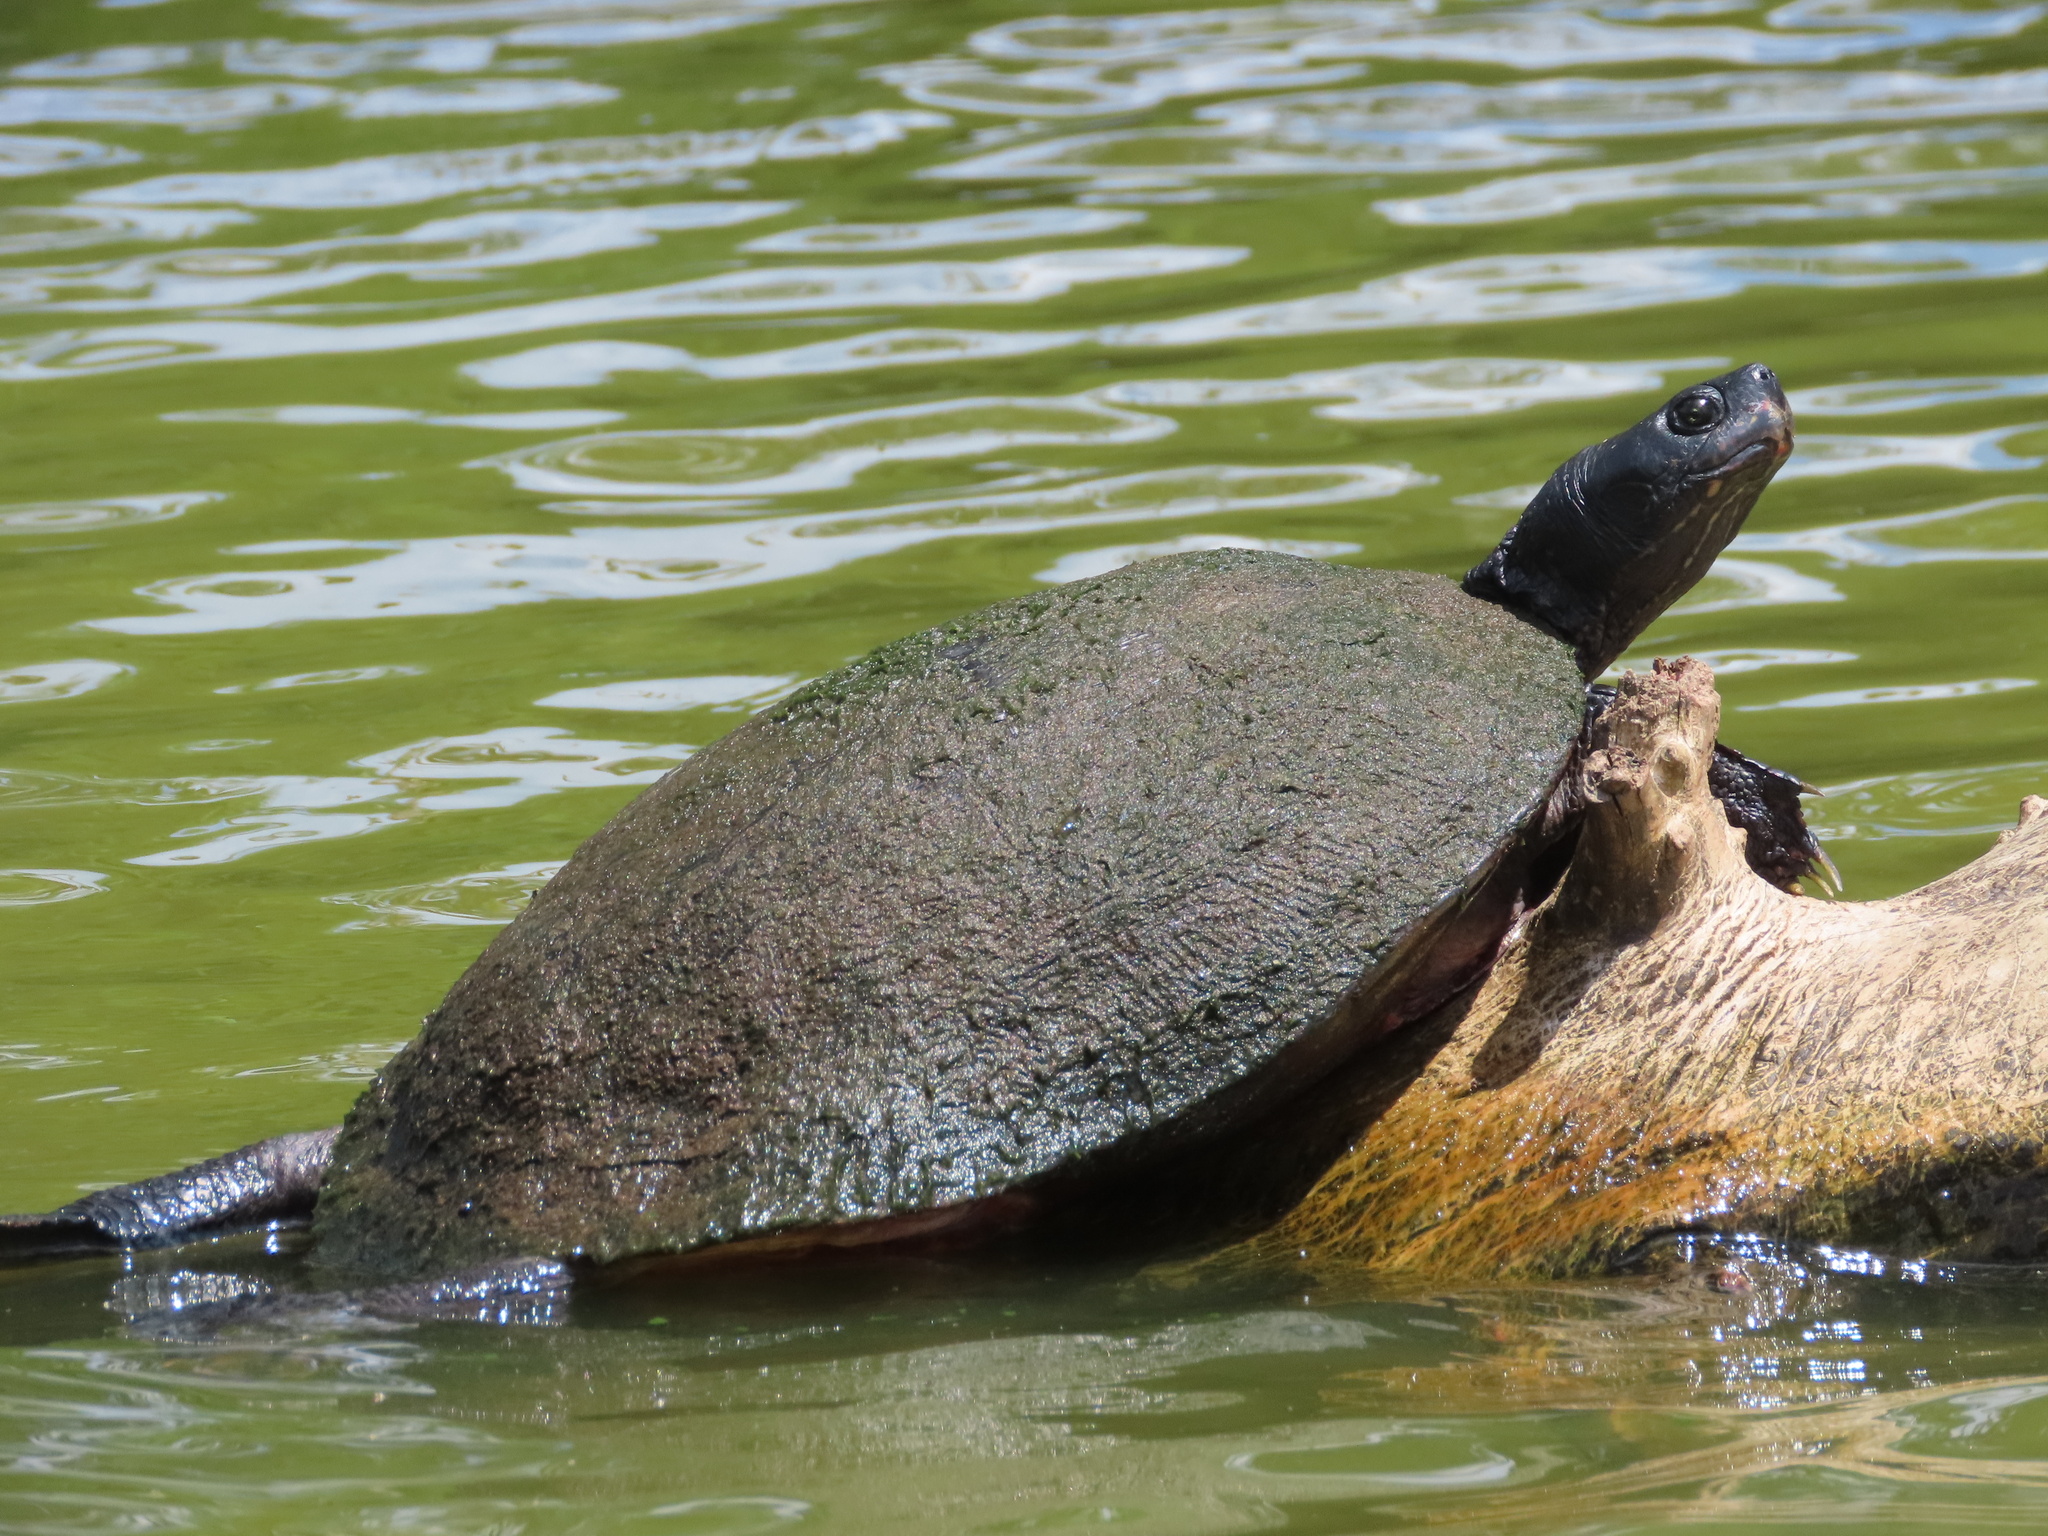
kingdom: Animalia
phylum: Chordata
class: Testudines
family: Emydidae
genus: Pseudemys
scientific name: Pseudemys rubriventris
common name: American red-bellied turtle
